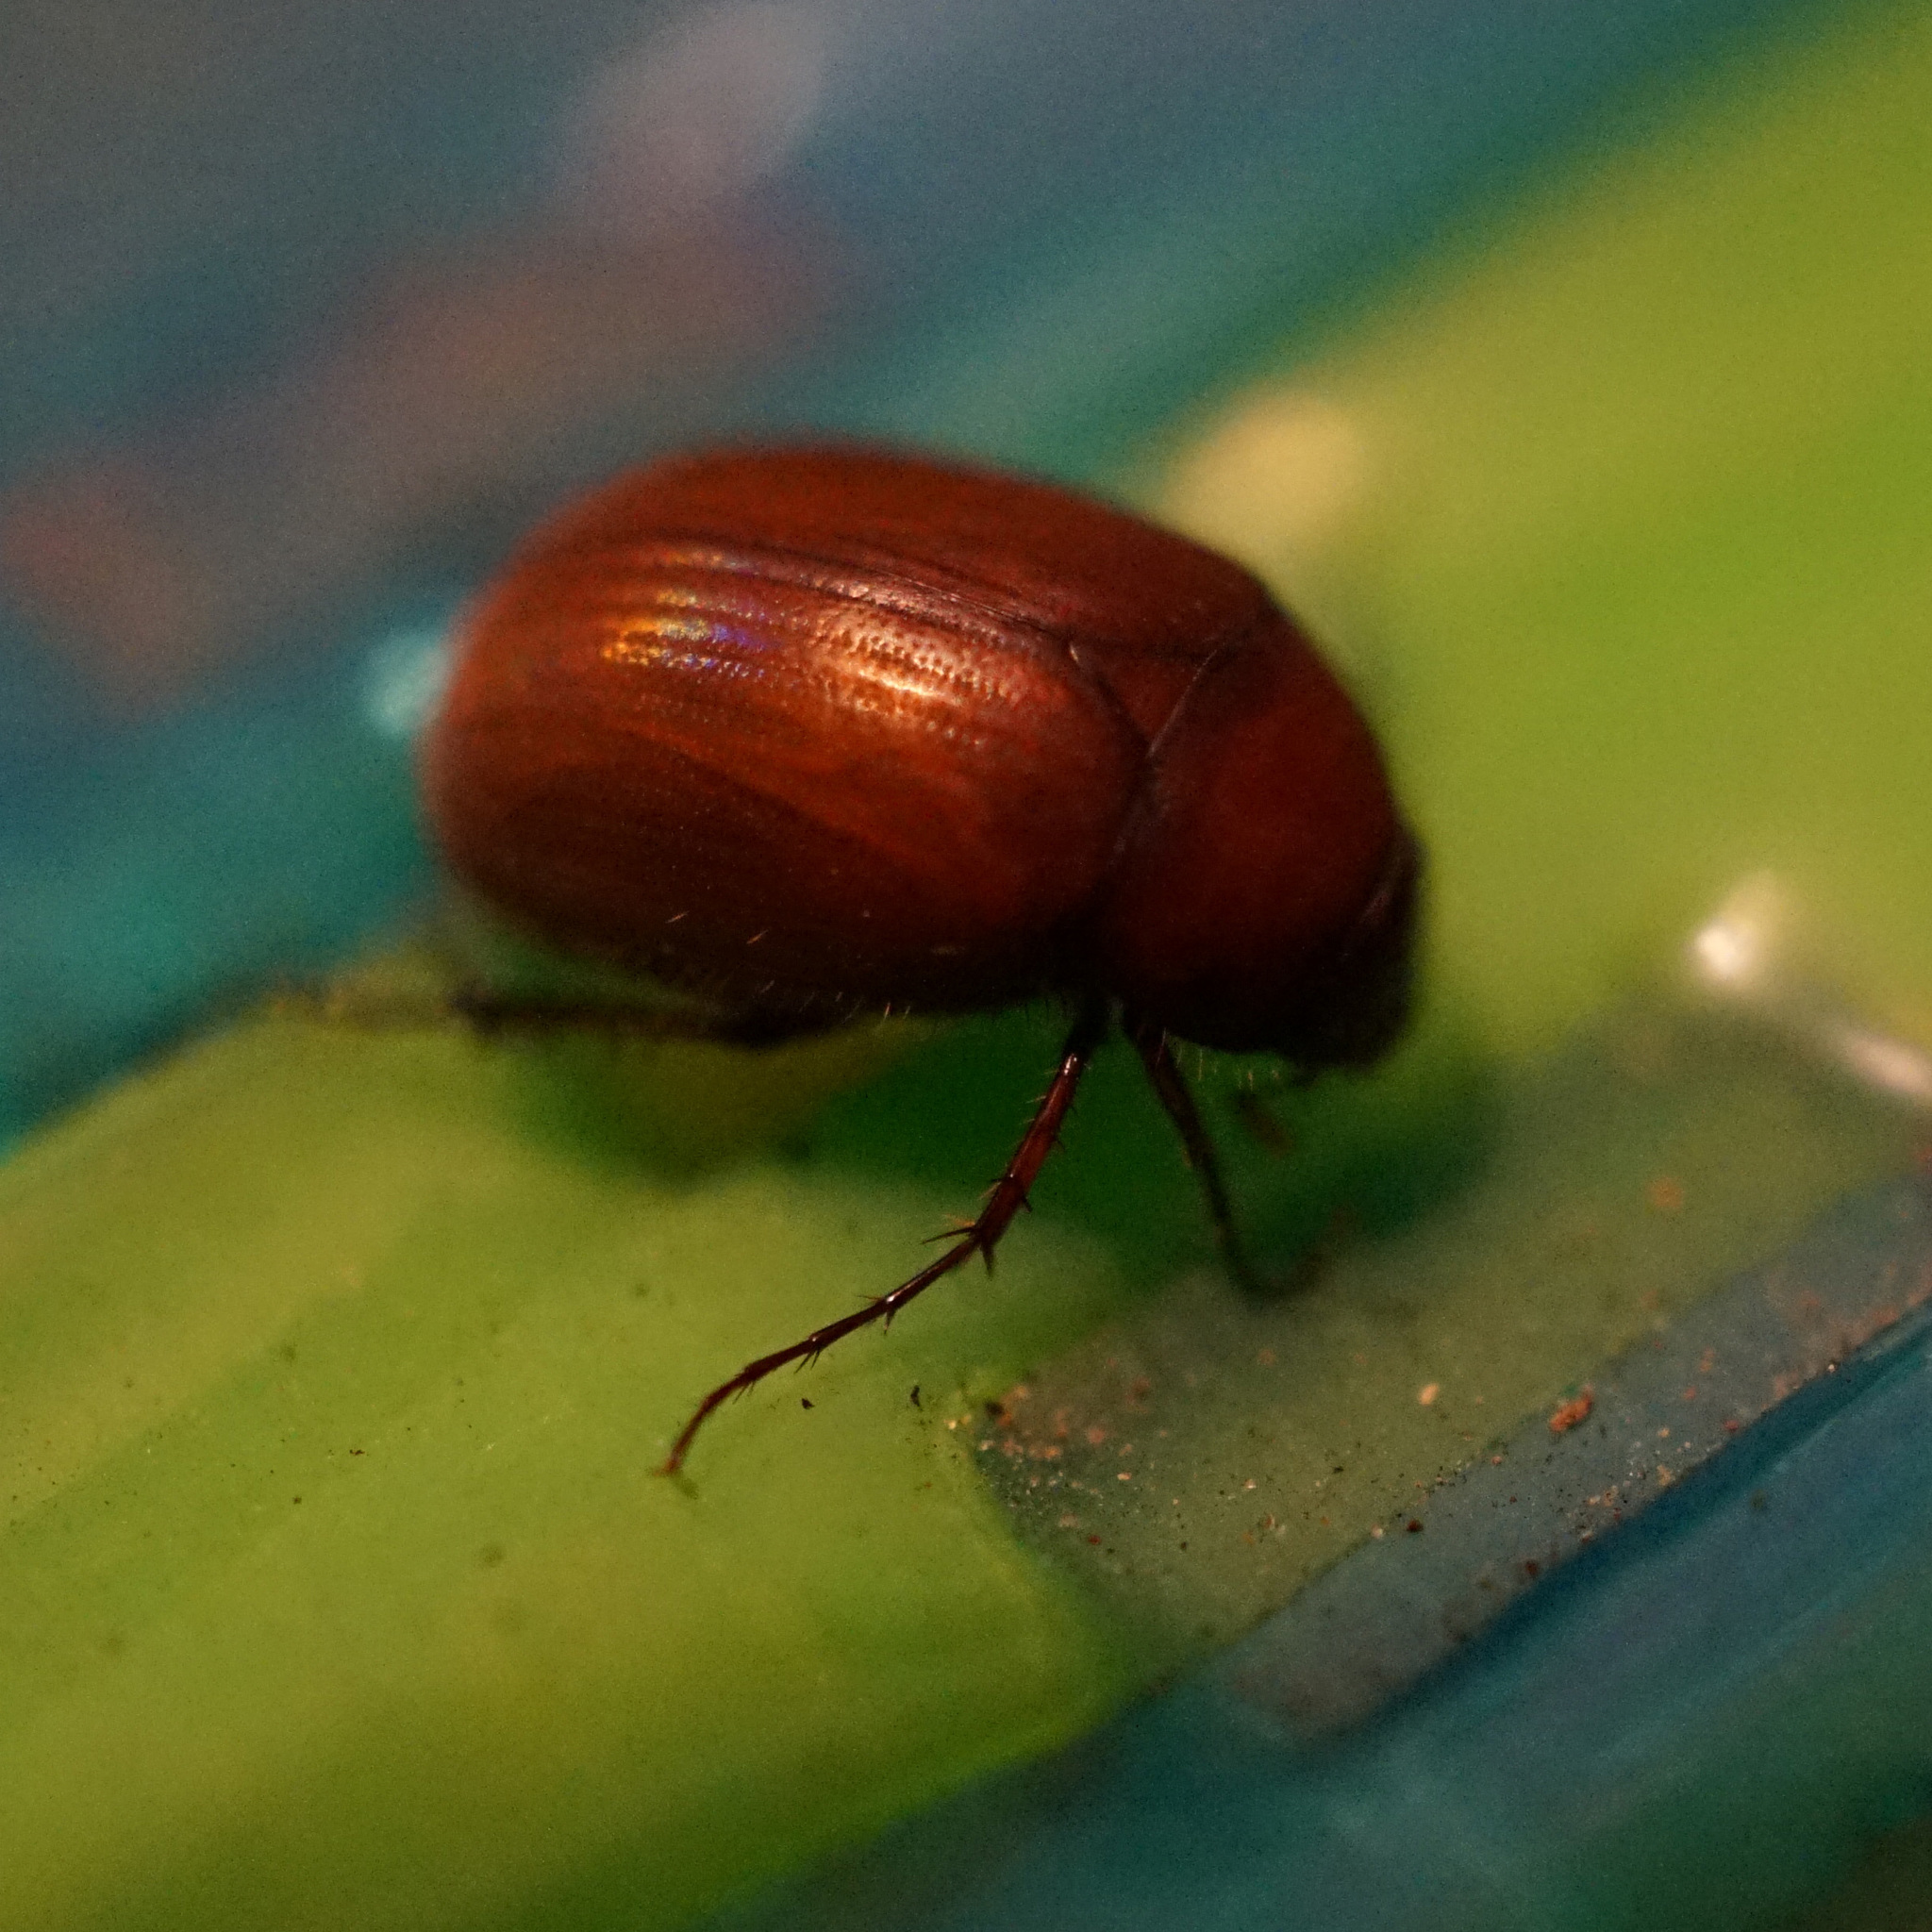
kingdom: Animalia
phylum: Arthropoda
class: Insecta
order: Coleoptera
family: Scarabaeidae
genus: Maladera
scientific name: Maladera formosae
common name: Asiatic garden beetle
